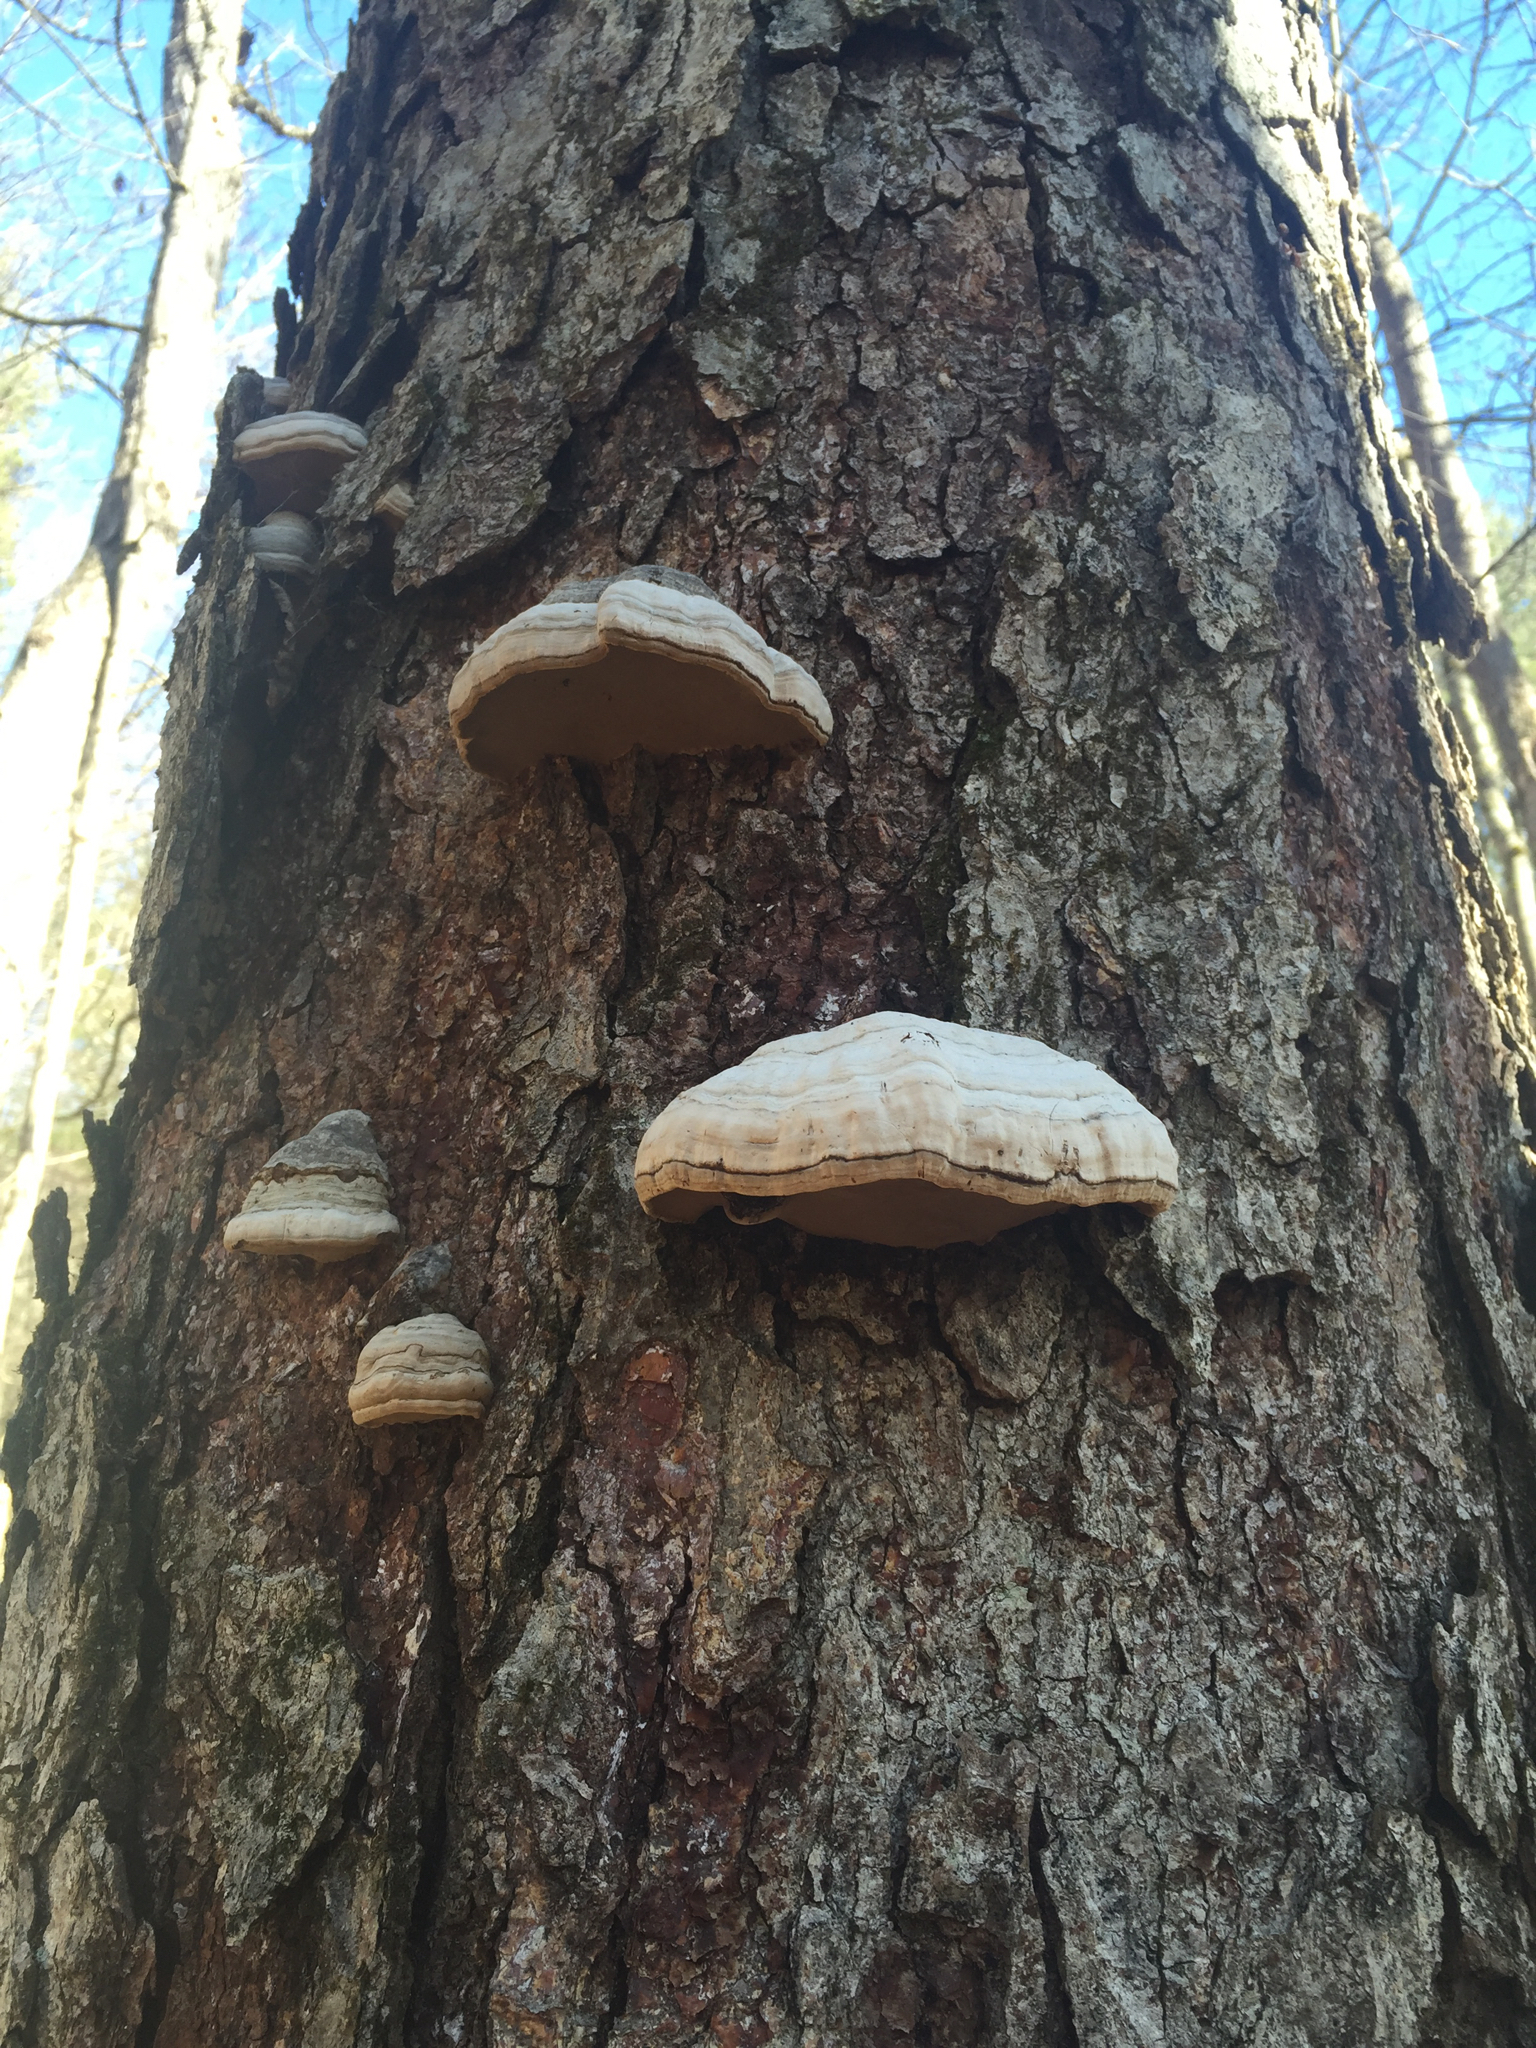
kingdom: Fungi
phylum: Basidiomycota
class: Agaricomycetes
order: Polyporales
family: Polyporaceae
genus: Fomes
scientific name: Fomes fomentarius
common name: Hoof fungus
